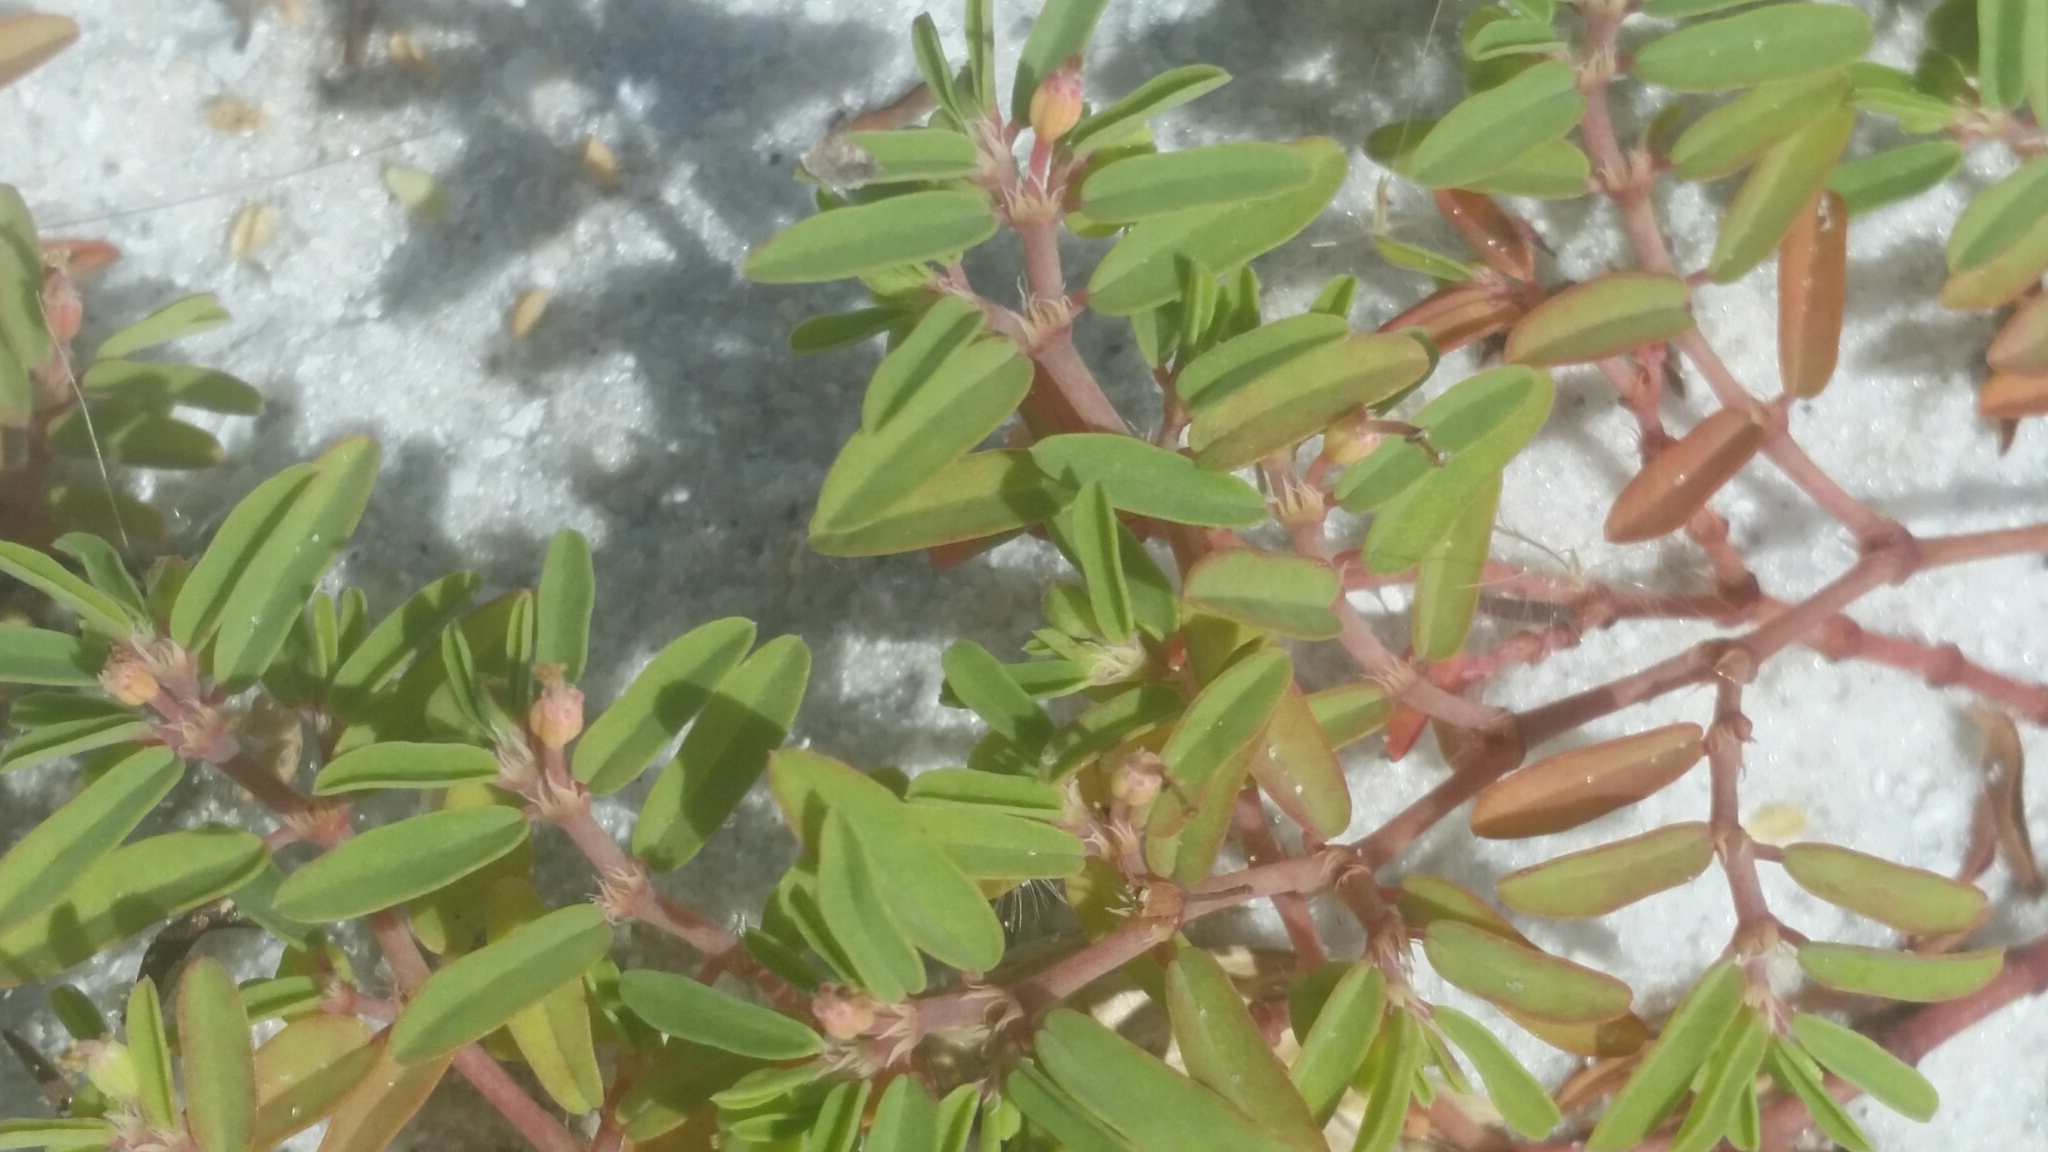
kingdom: Plantae
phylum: Tracheophyta
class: Magnoliopsida
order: Malpighiales
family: Euphorbiaceae
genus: Euphorbia
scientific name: Euphorbia bombensis
